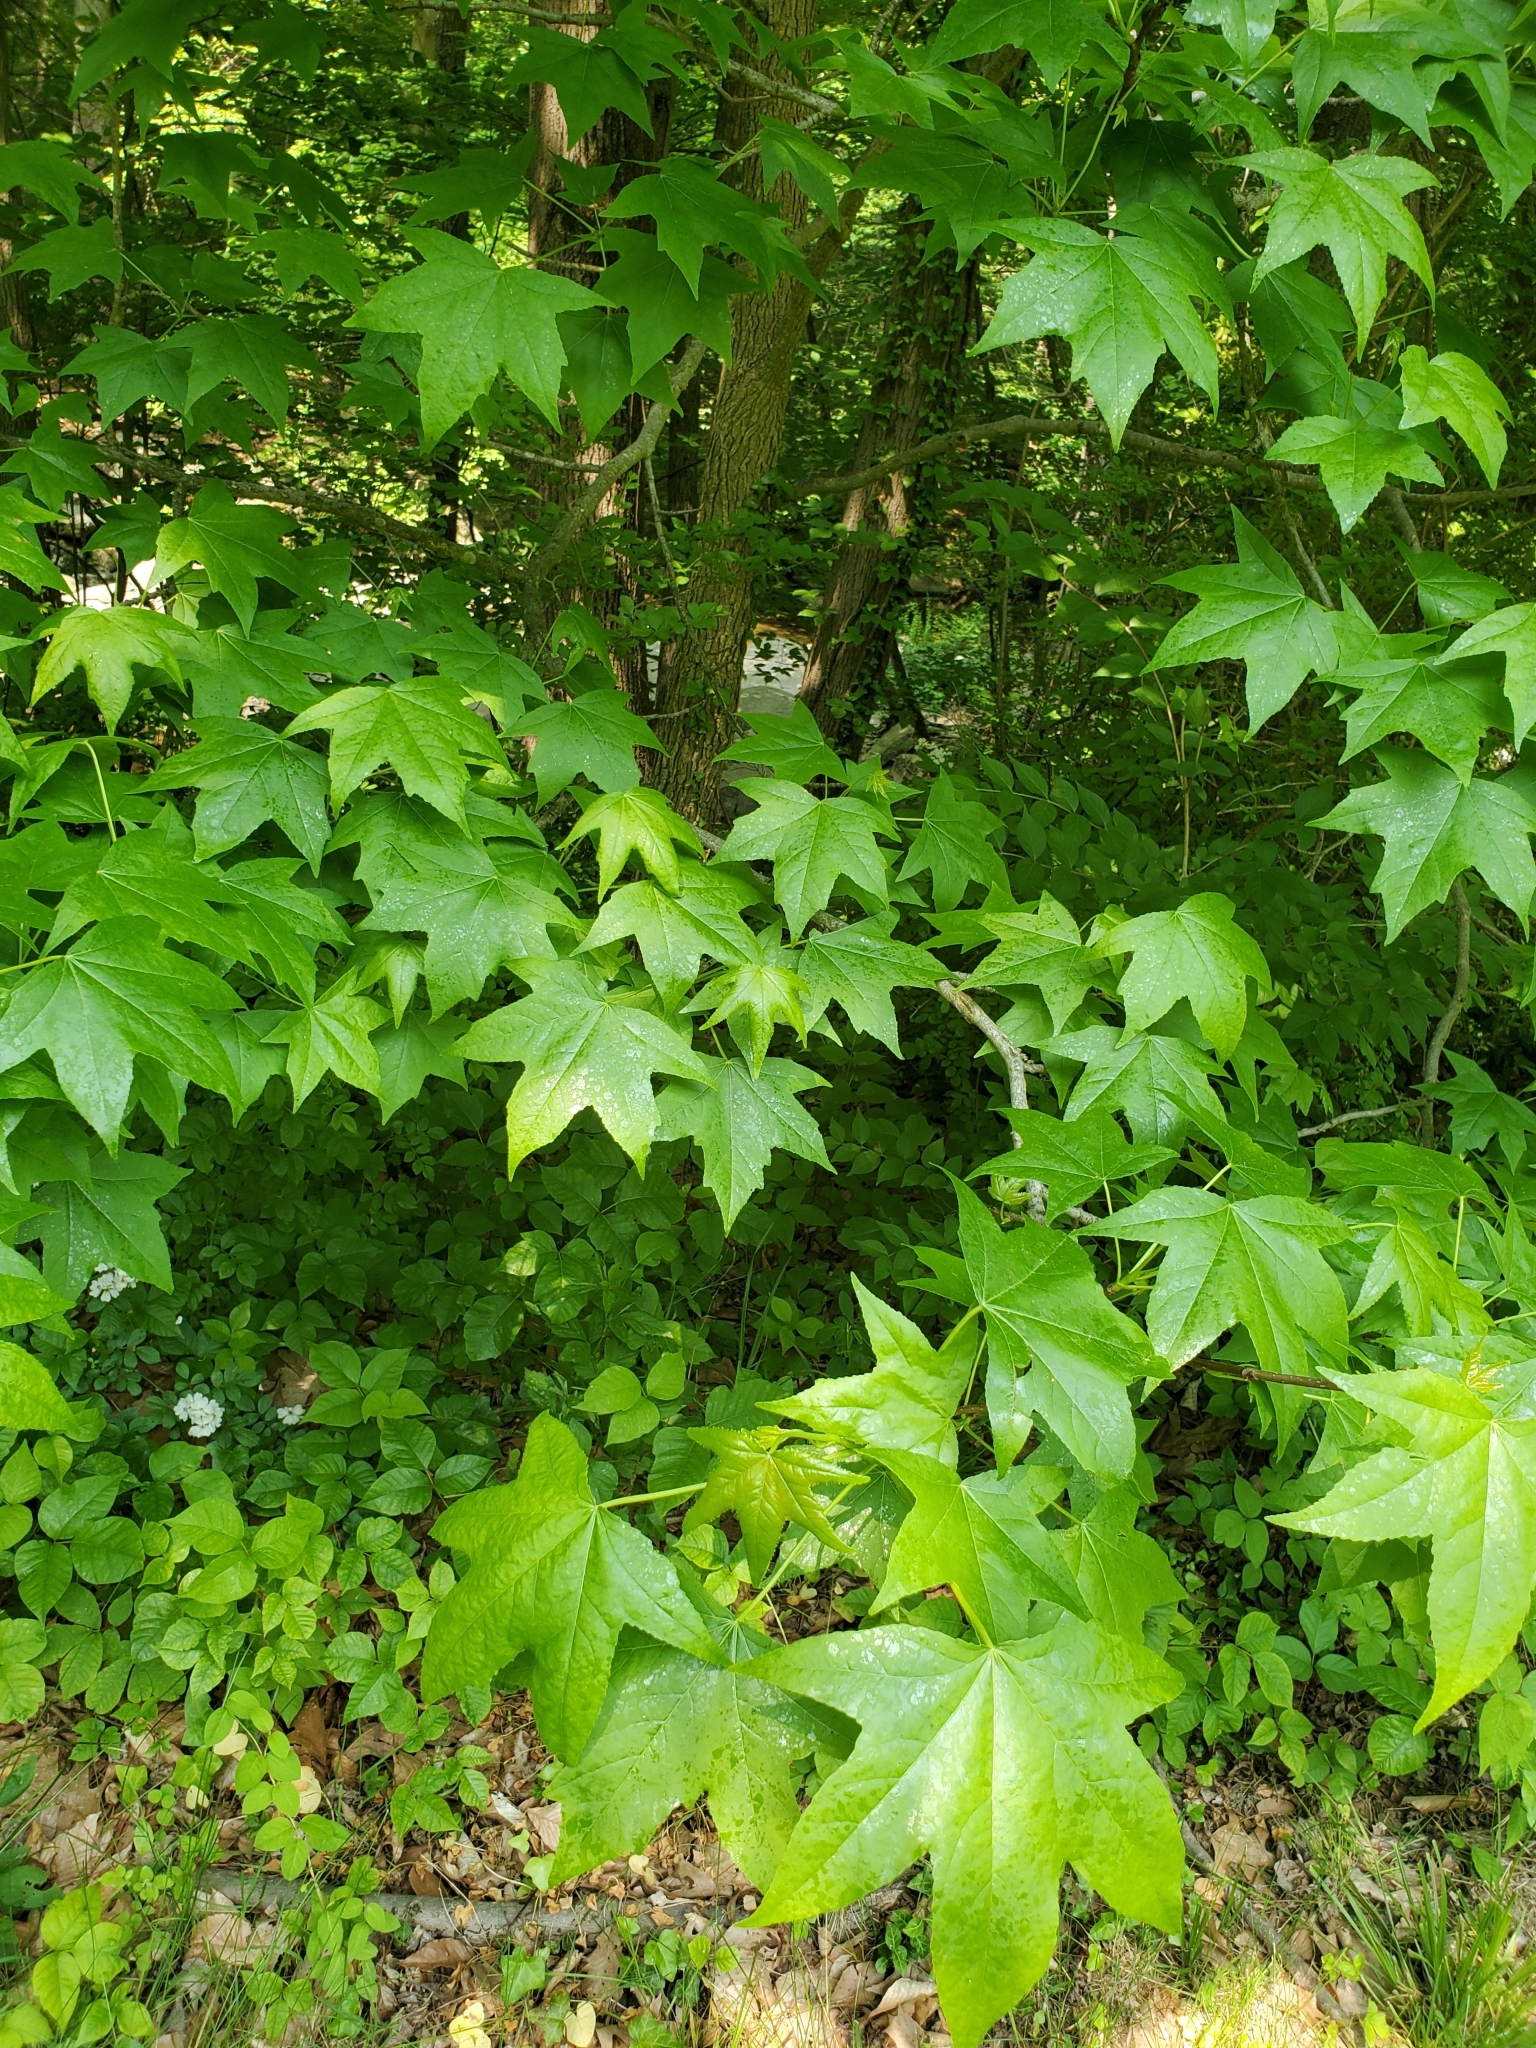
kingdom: Plantae
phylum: Tracheophyta
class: Magnoliopsida
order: Saxifragales
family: Altingiaceae
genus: Liquidambar
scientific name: Liquidambar styraciflua
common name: Sweet gum
